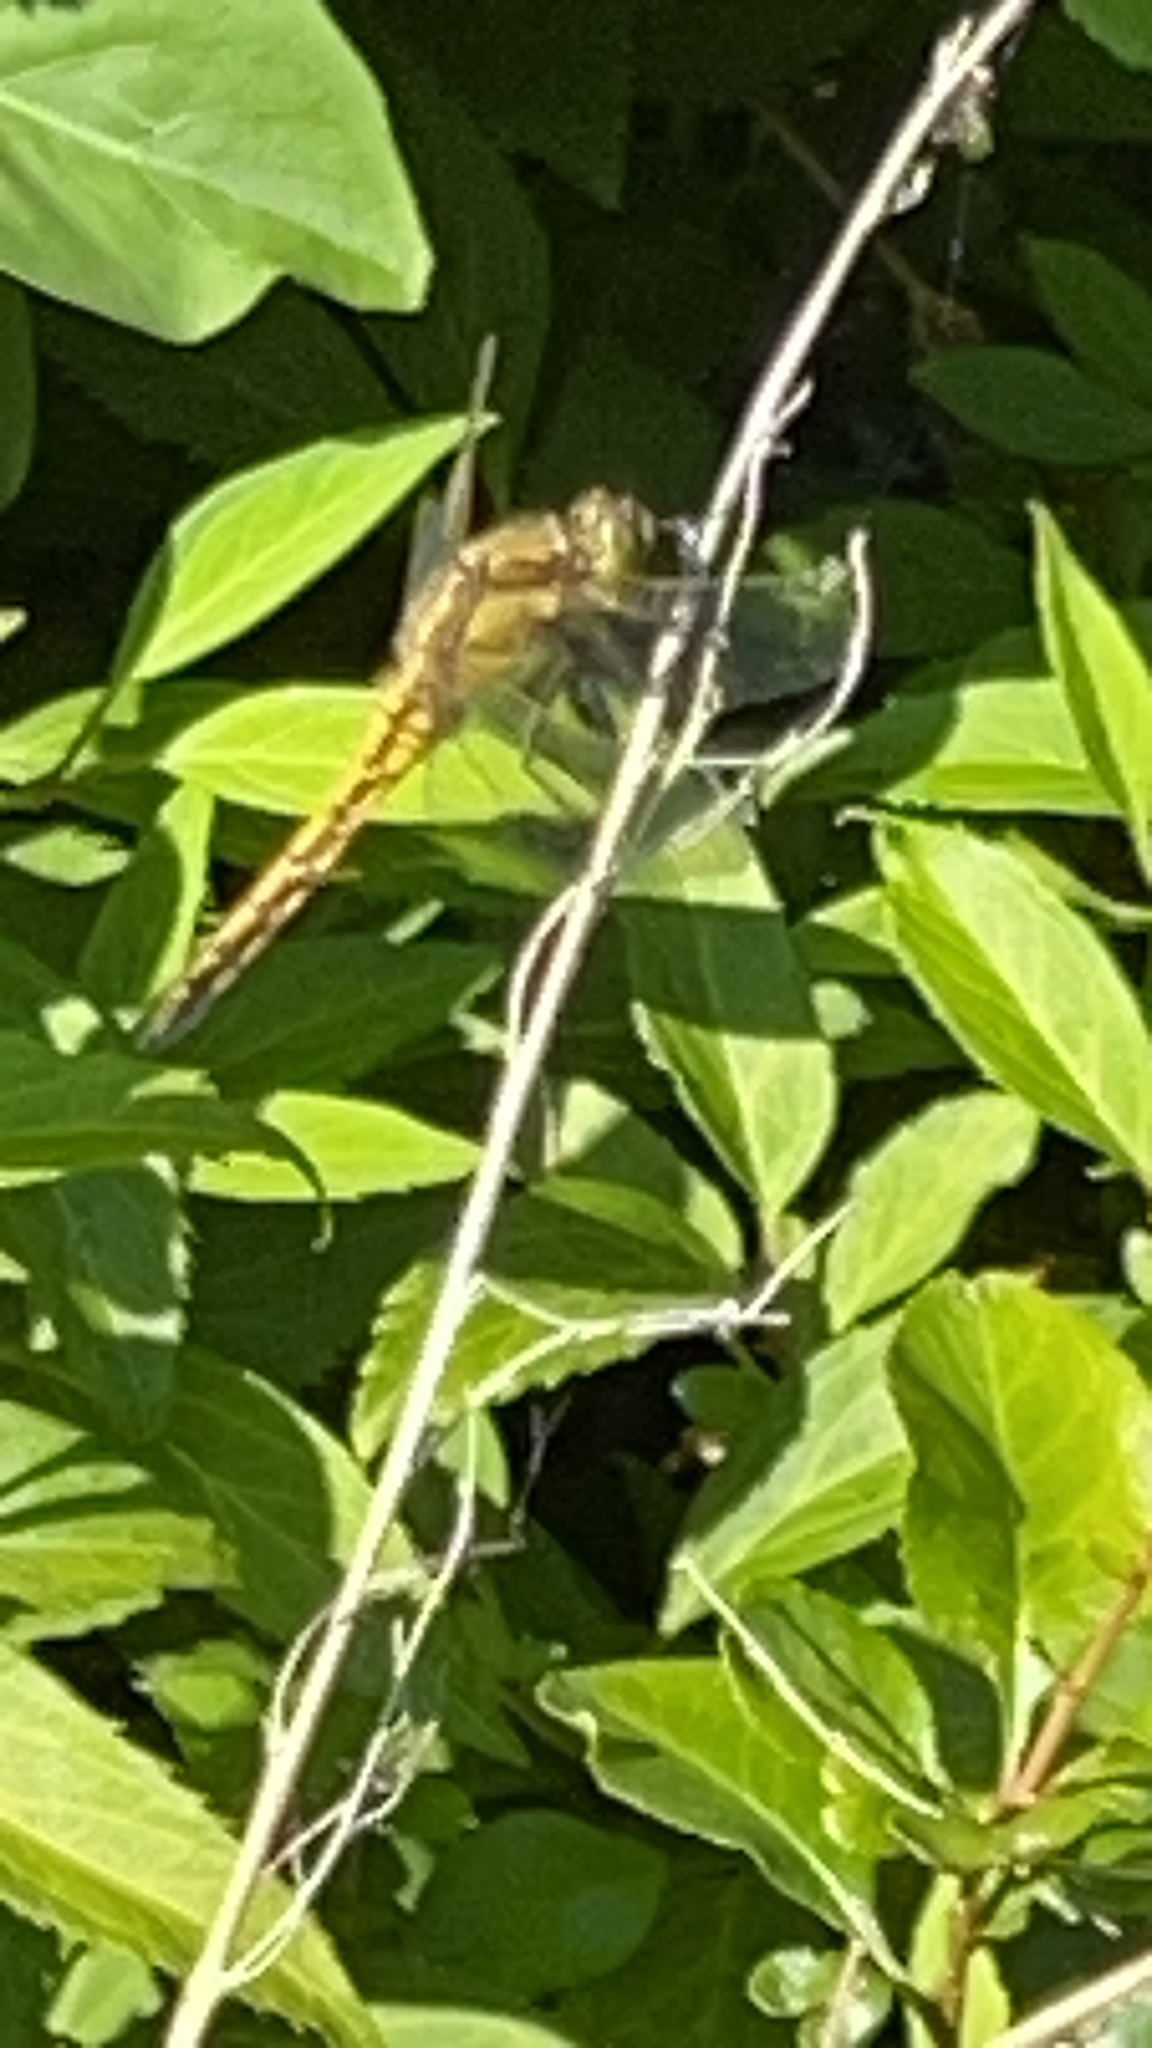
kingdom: Animalia
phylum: Arthropoda
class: Insecta
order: Odonata
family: Libellulidae
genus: Orthetrum
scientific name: Orthetrum cancellatum
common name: Black-tailed skimmer
